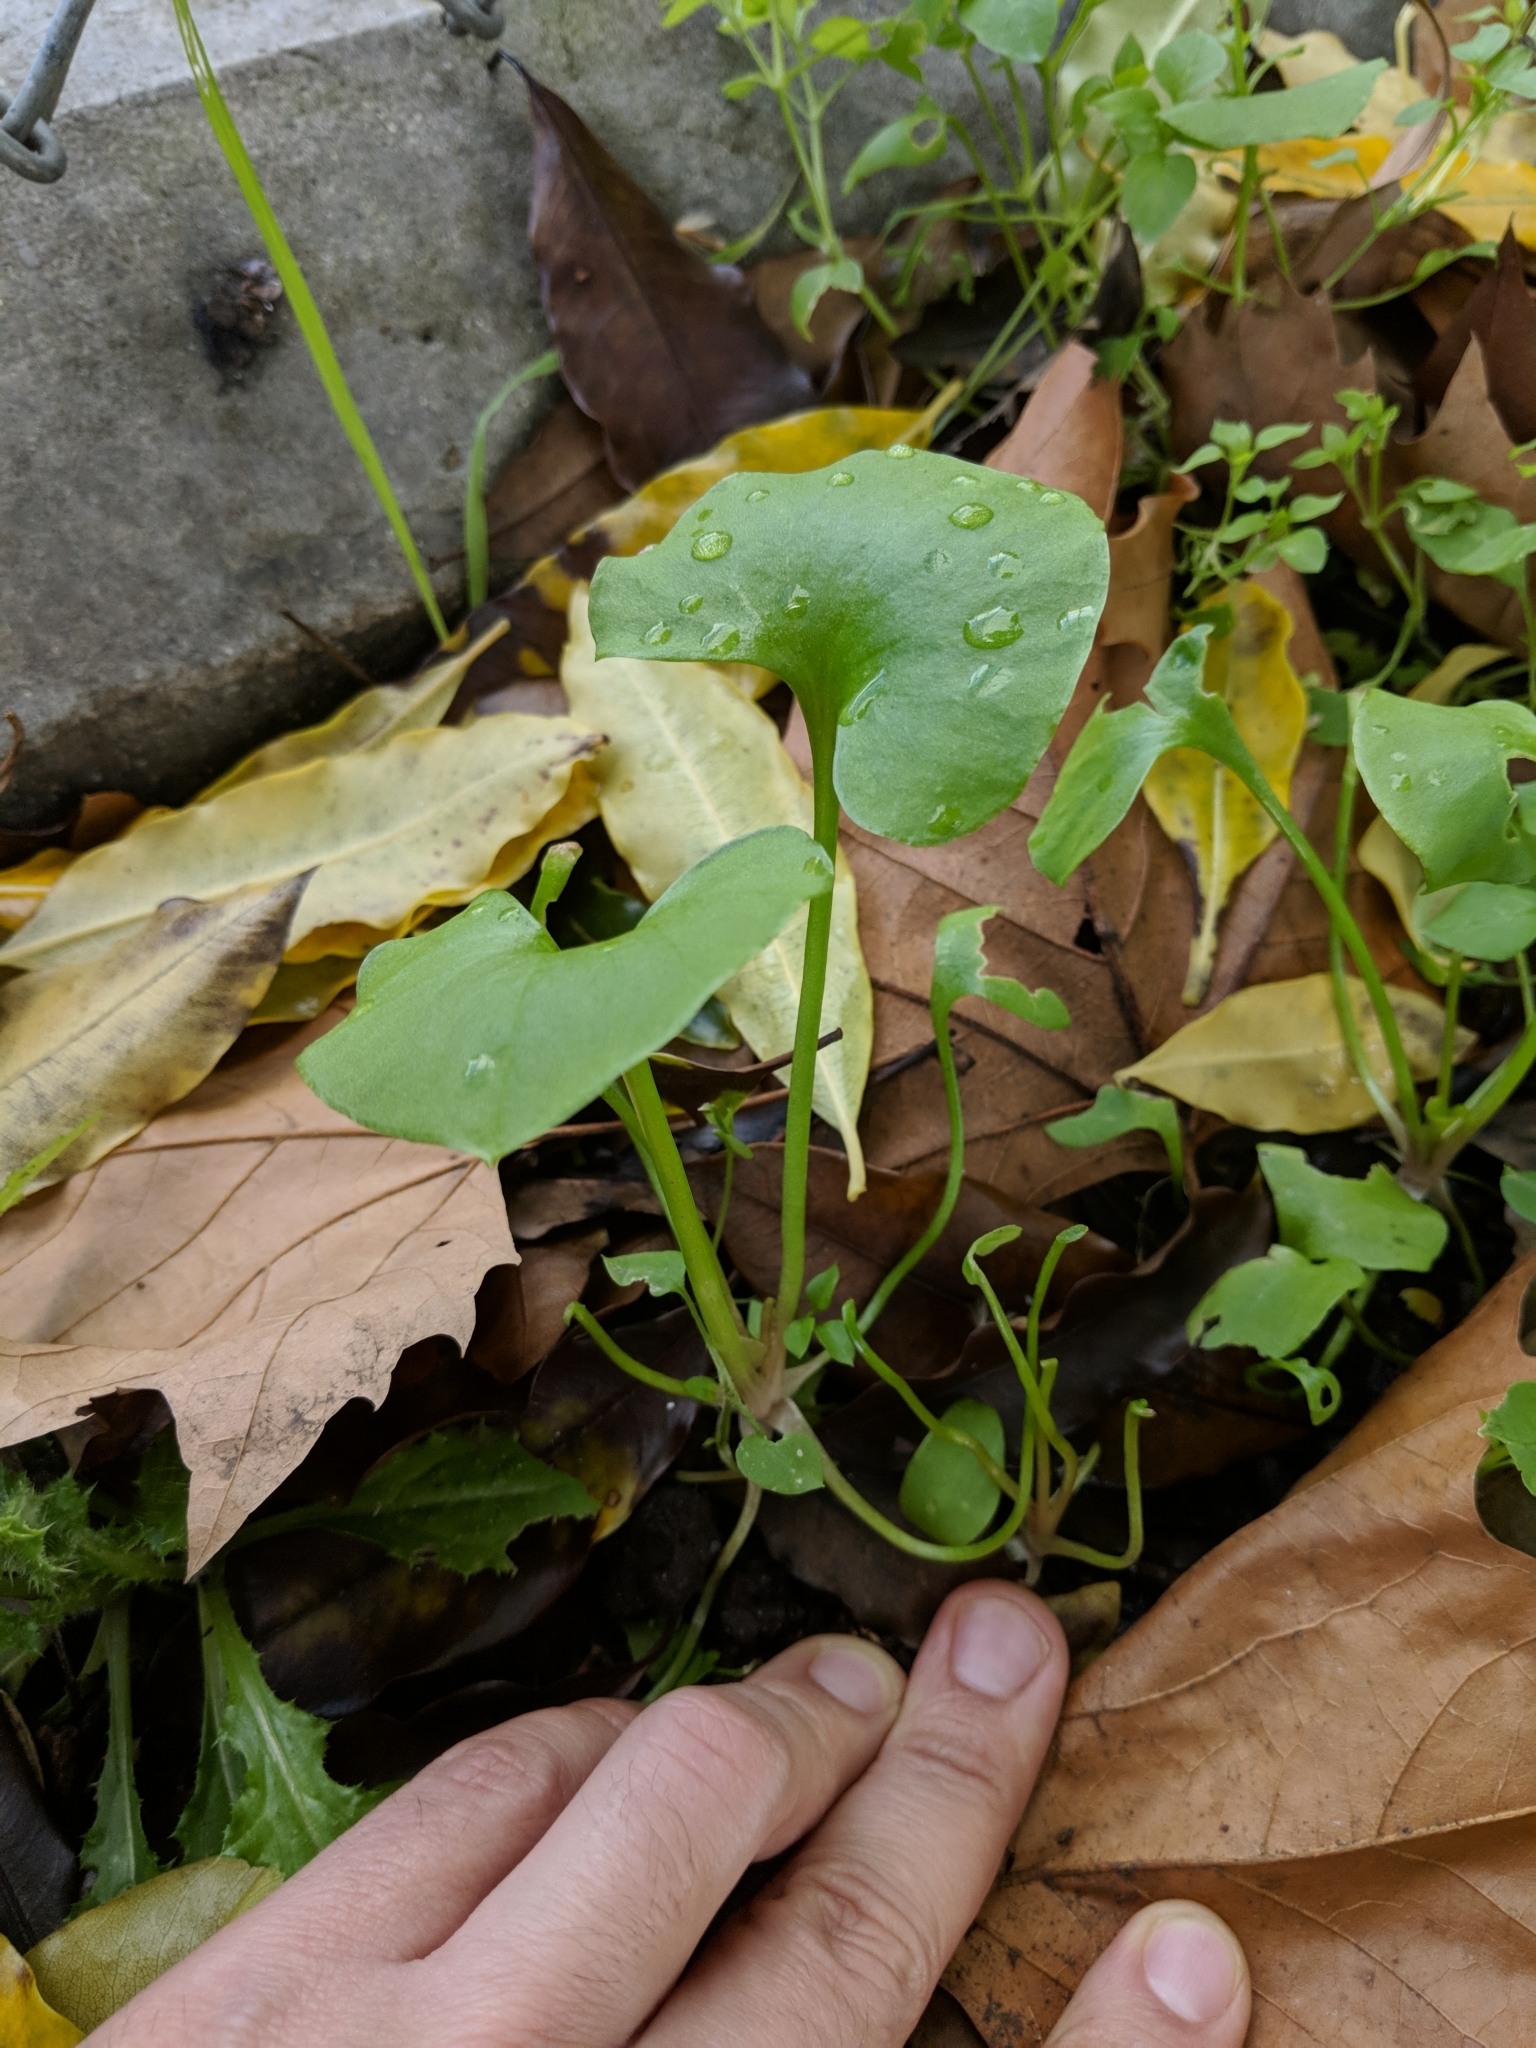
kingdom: Plantae
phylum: Tracheophyta
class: Magnoliopsida
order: Caryophyllales
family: Montiaceae
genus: Claytonia
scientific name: Claytonia perfoliata
